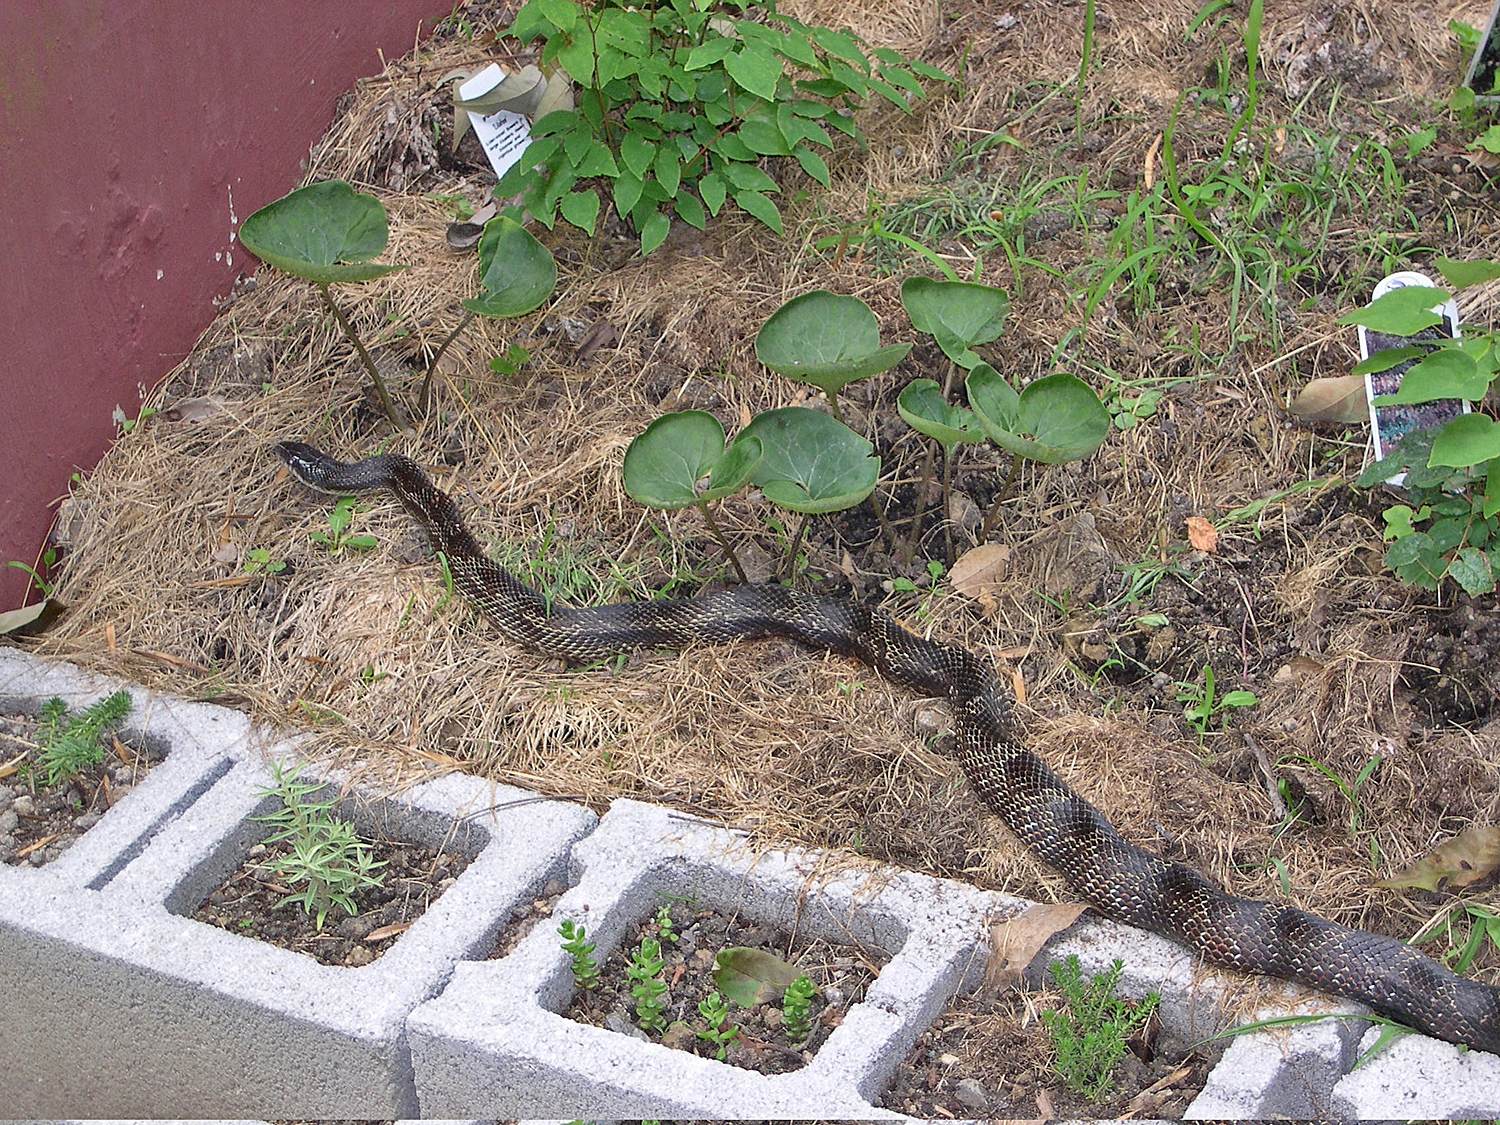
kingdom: Animalia
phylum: Chordata
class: Squamata
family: Colubridae
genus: Pantherophis
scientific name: Pantherophis spiloides
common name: Gray rat snake
